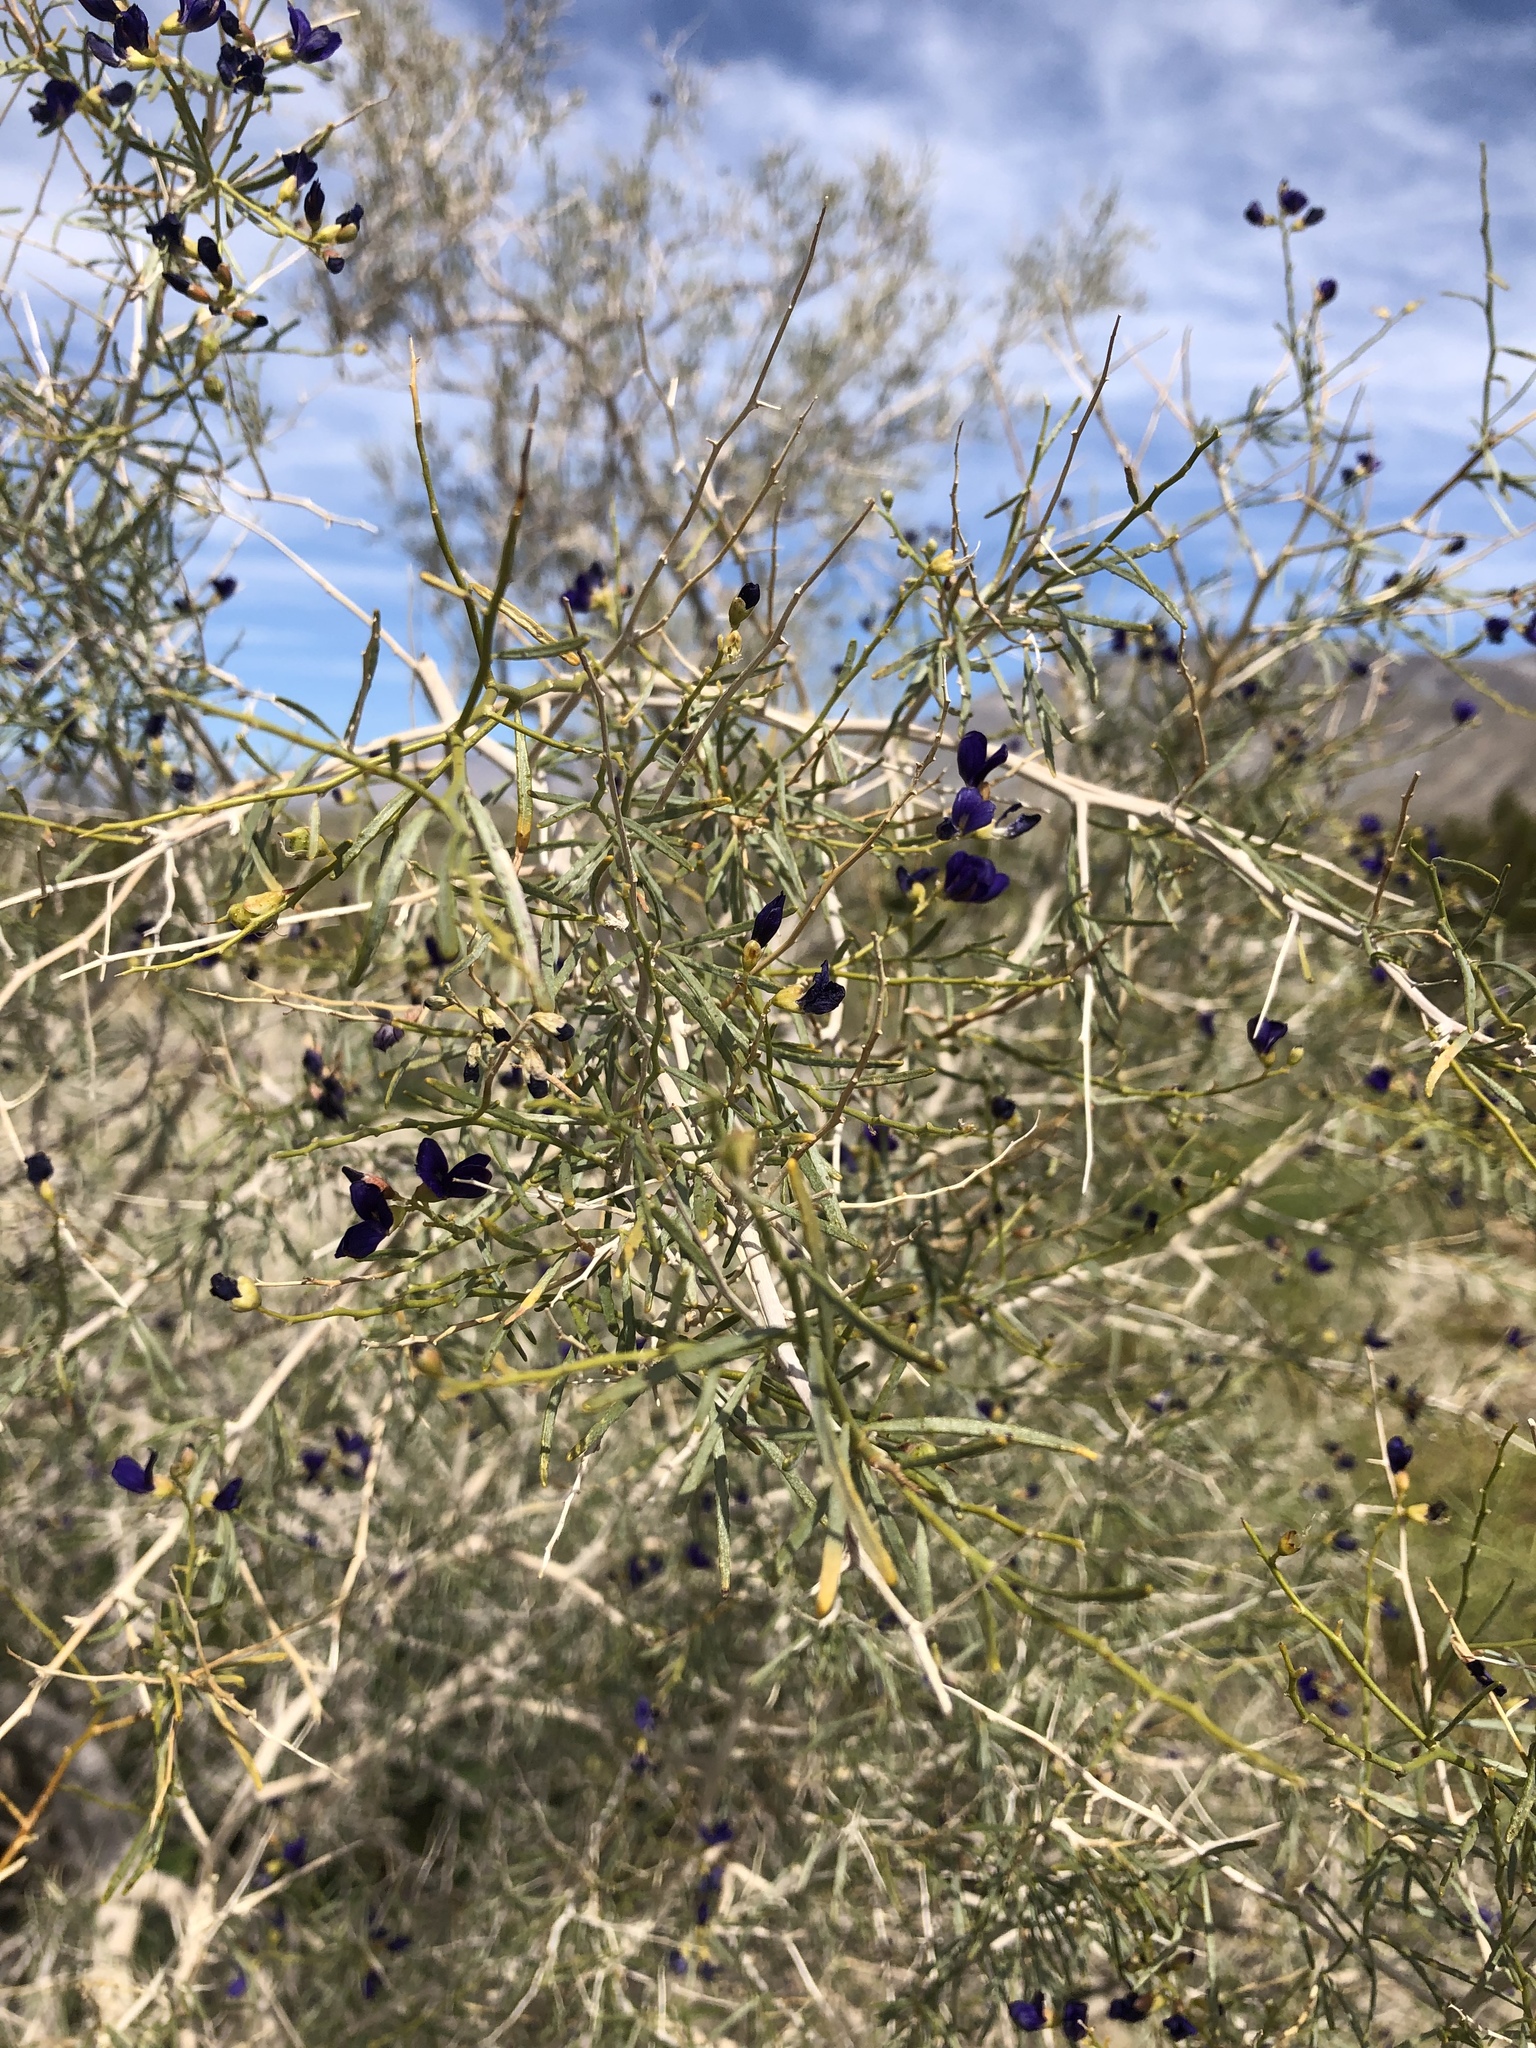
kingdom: Plantae
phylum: Tracheophyta
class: Magnoliopsida
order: Fabales
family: Fabaceae
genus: Psorothamnus
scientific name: Psorothamnus schottii
